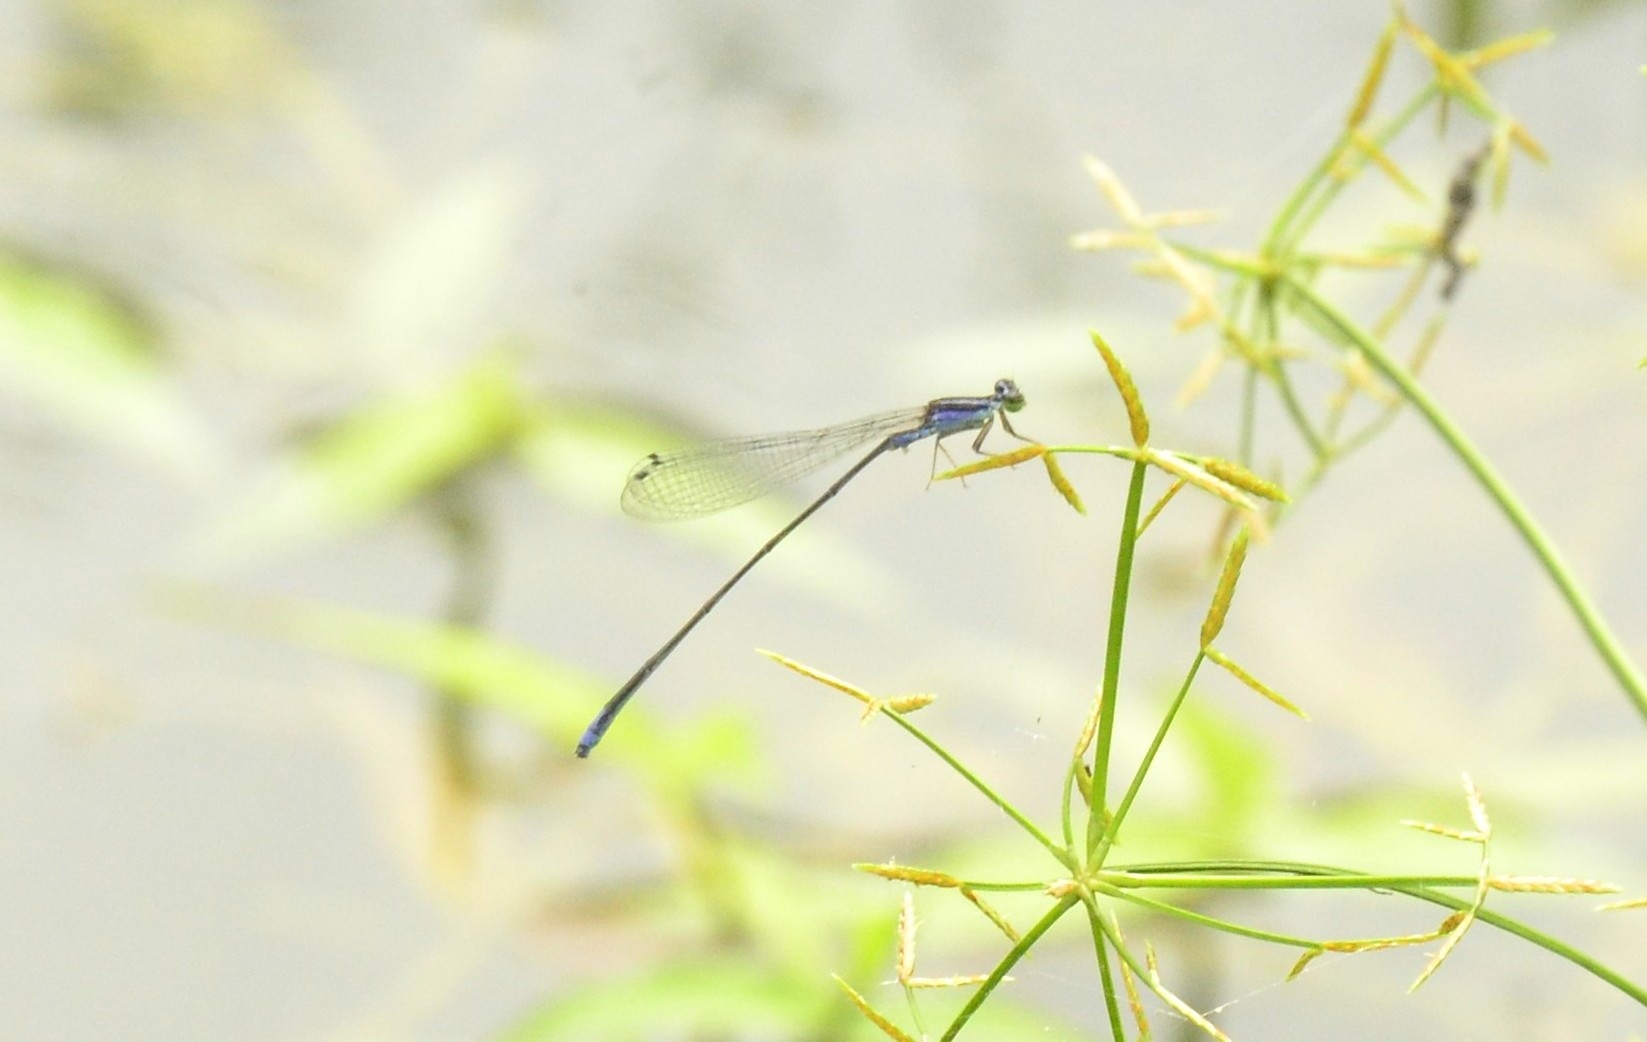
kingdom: Animalia
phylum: Arthropoda
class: Insecta
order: Odonata
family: Coenagrionidae
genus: Aciagrion
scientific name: Aciagrion approximans
